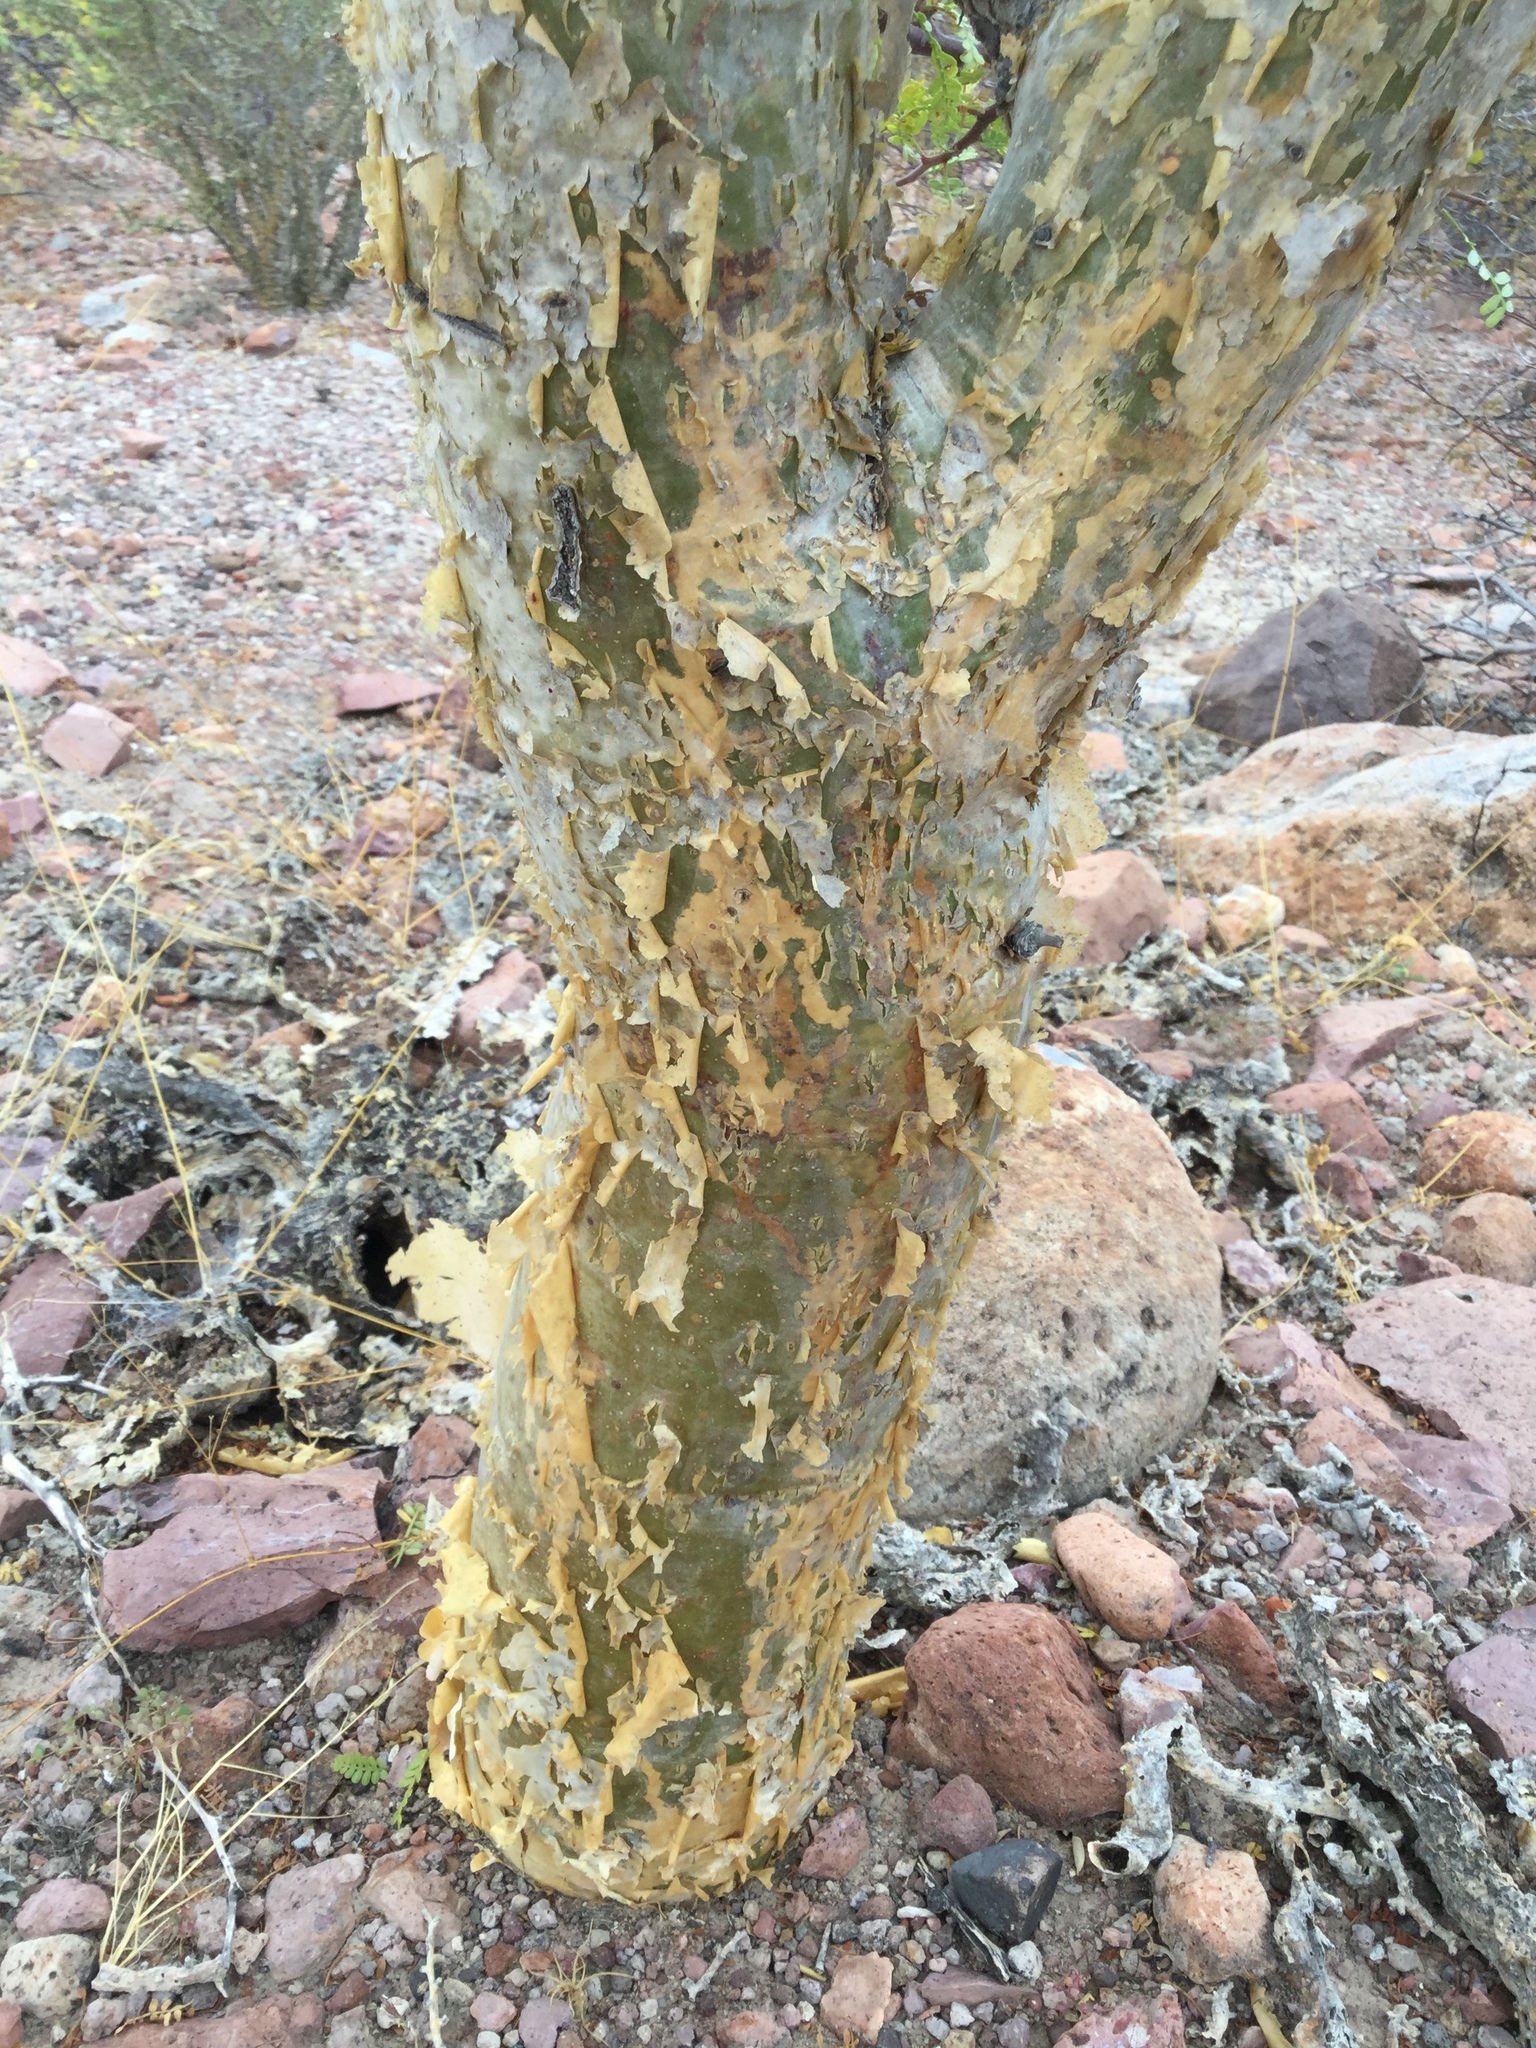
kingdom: Plantae
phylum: Tracheophyta
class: Magnoliopsida
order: Sapindales
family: Burseraceae
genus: Bursera
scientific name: Bursera microphylla
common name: Elephant tree
